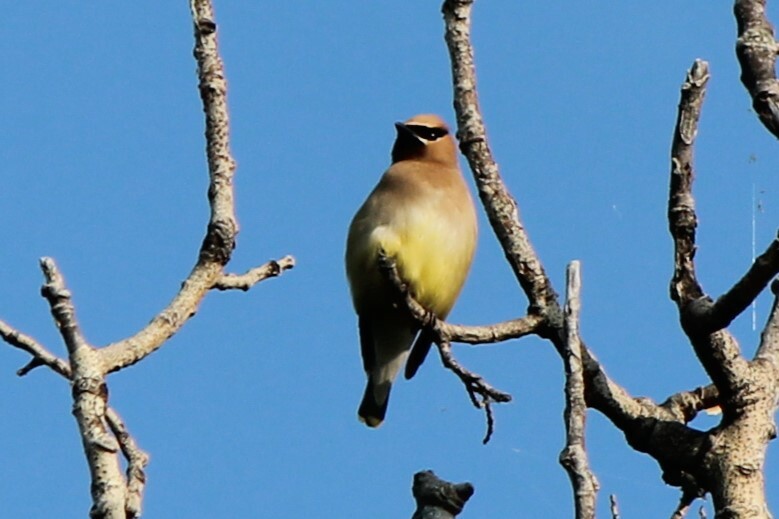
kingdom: Animalia
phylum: Chordata
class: Aves
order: Passeriformes
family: Bombycillidae
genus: Bombycilla
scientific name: Bombycilla cedrorum
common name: Cedar waxwing
